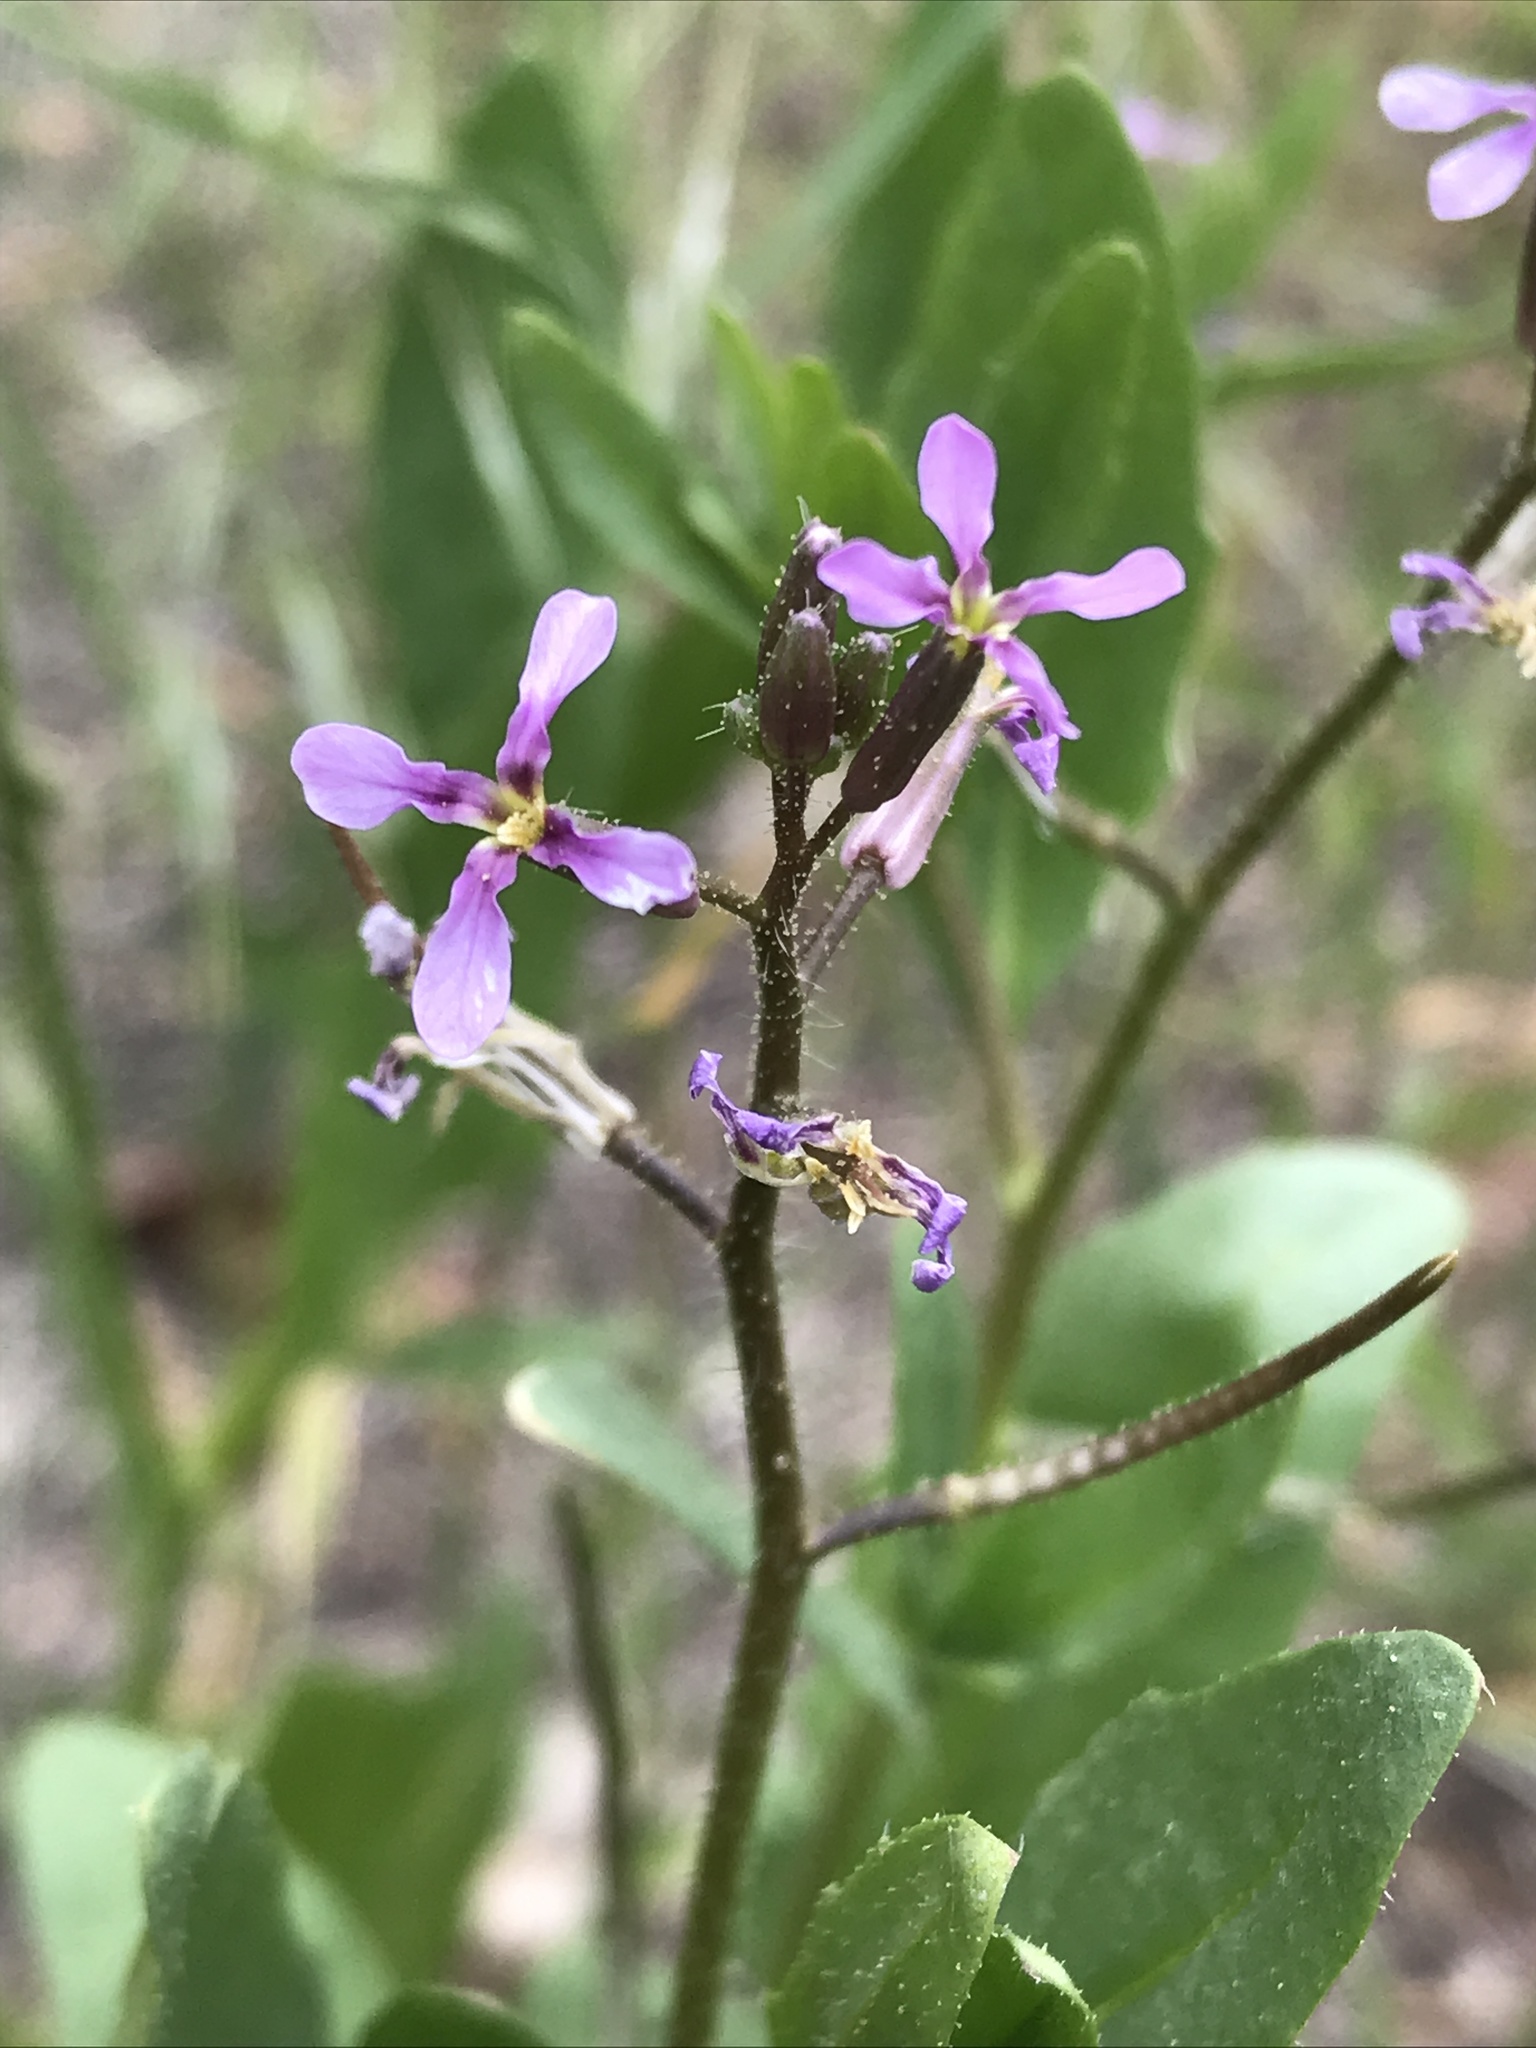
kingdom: Plantae
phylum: Tracheophyta
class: Magnoliopsida
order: Brassicales
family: Brassicaceae
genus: Chorispora
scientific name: Chorispora tenella
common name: Crossflower
